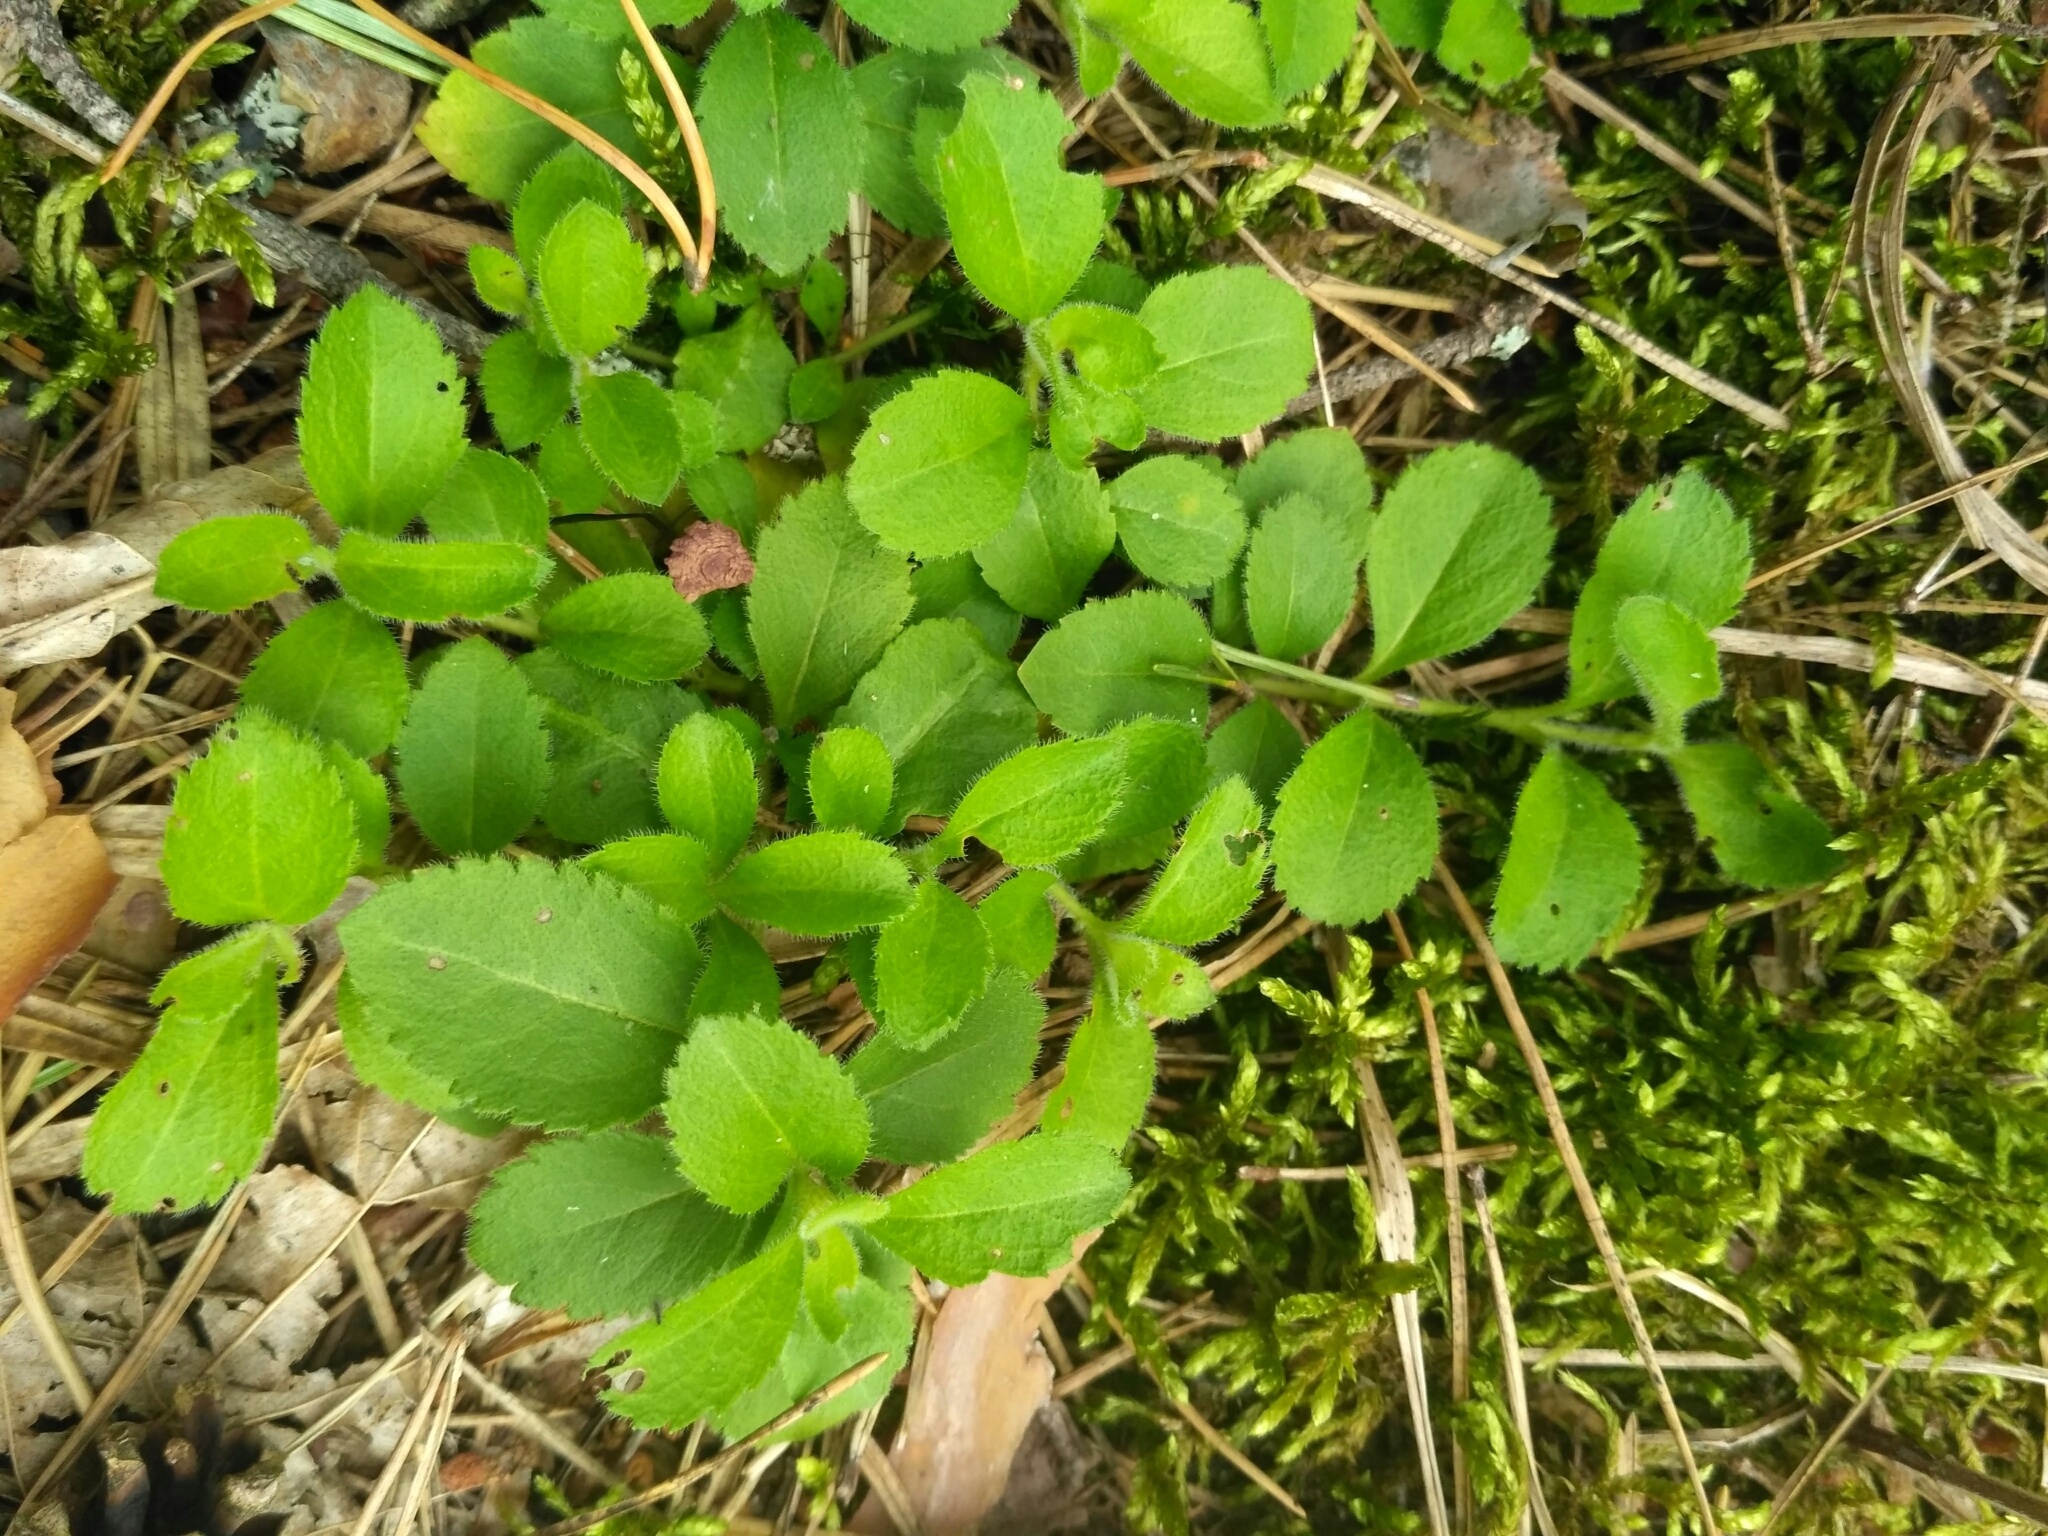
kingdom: Plantae
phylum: Tracheophyta
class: Magnoliopsida
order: Lamiales
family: Plantaginaceae
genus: Veronica
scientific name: Veronica officinalis
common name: Common speedwell
